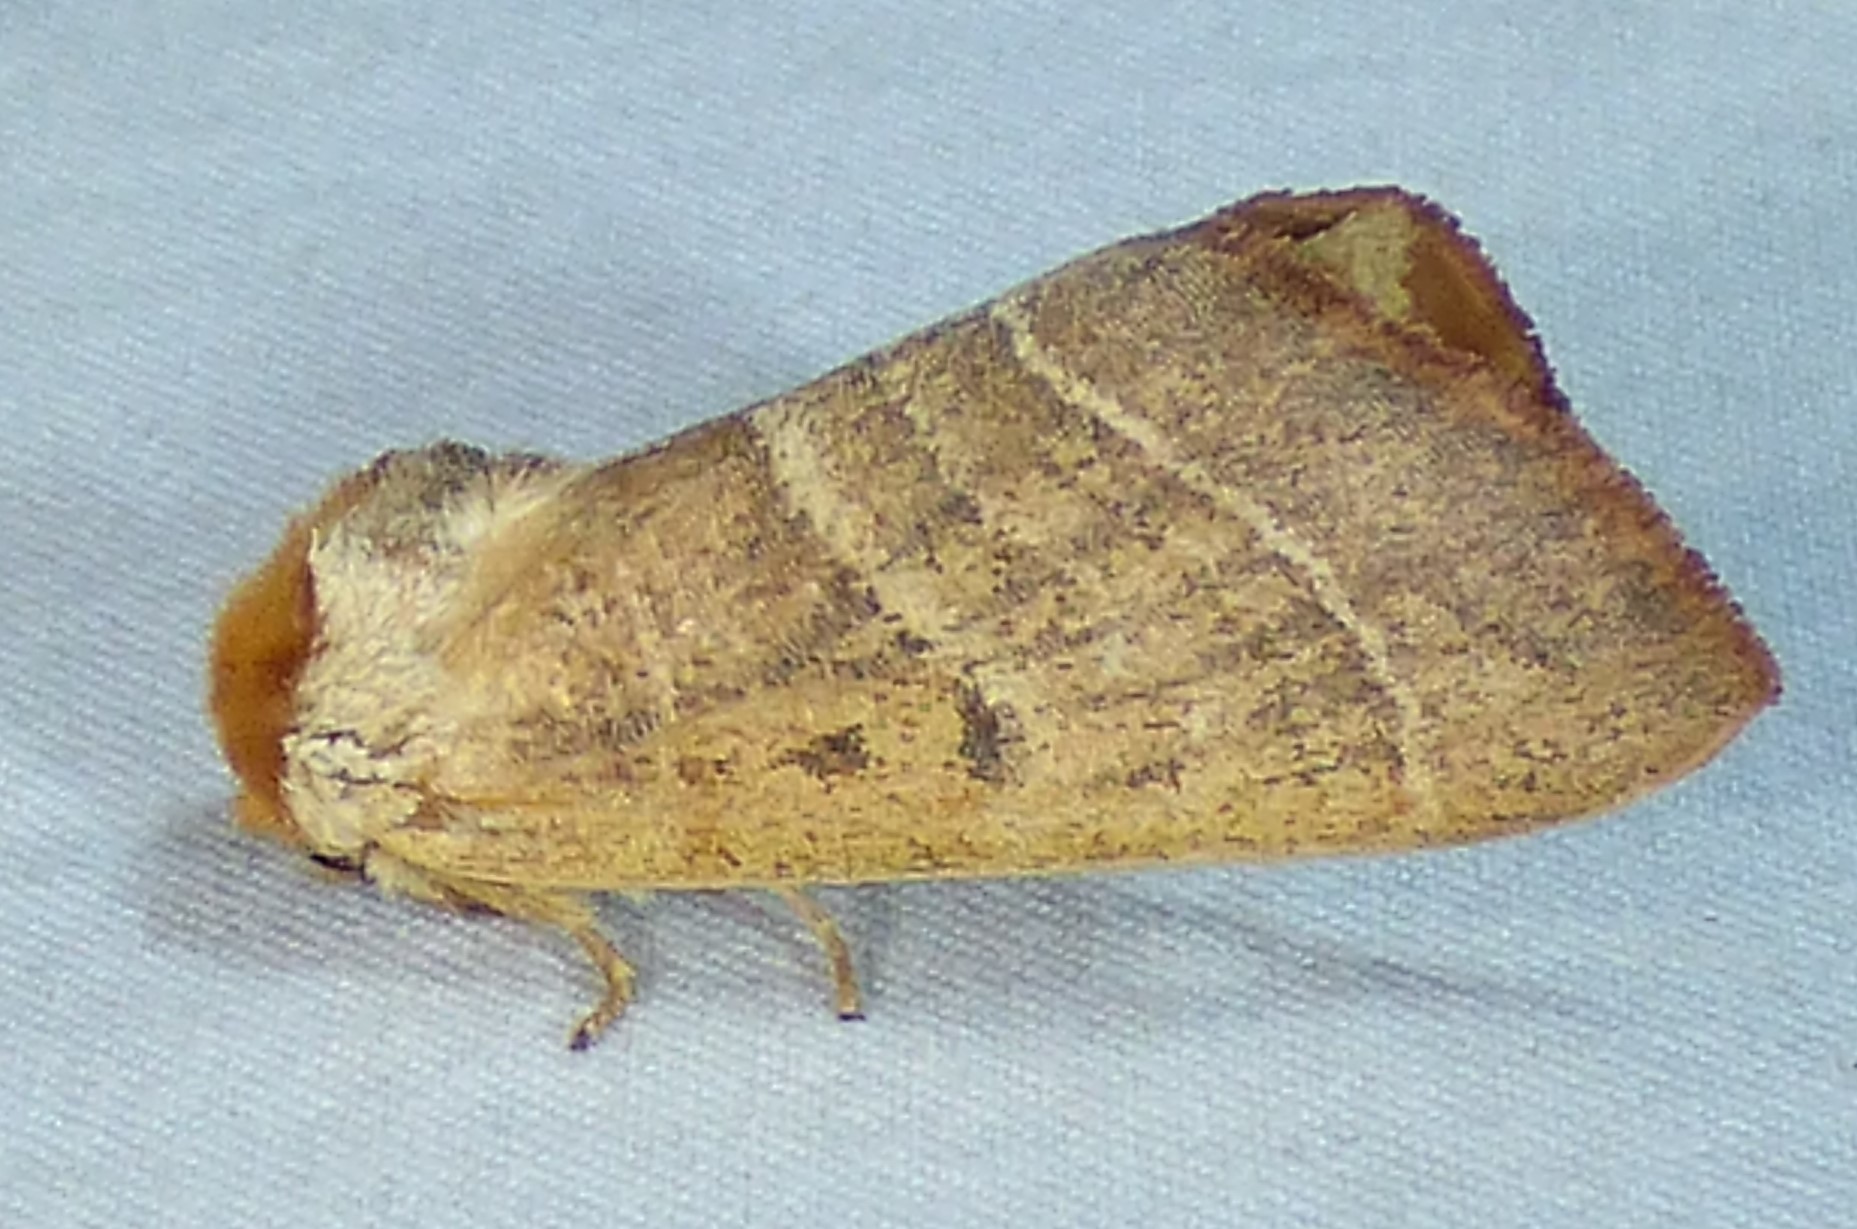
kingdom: Animalia
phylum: Arthropoda
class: Insecta
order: Lepidoptera
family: Notodontidae
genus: Datana
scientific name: Datana integerrima
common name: Walnut caterpillar
